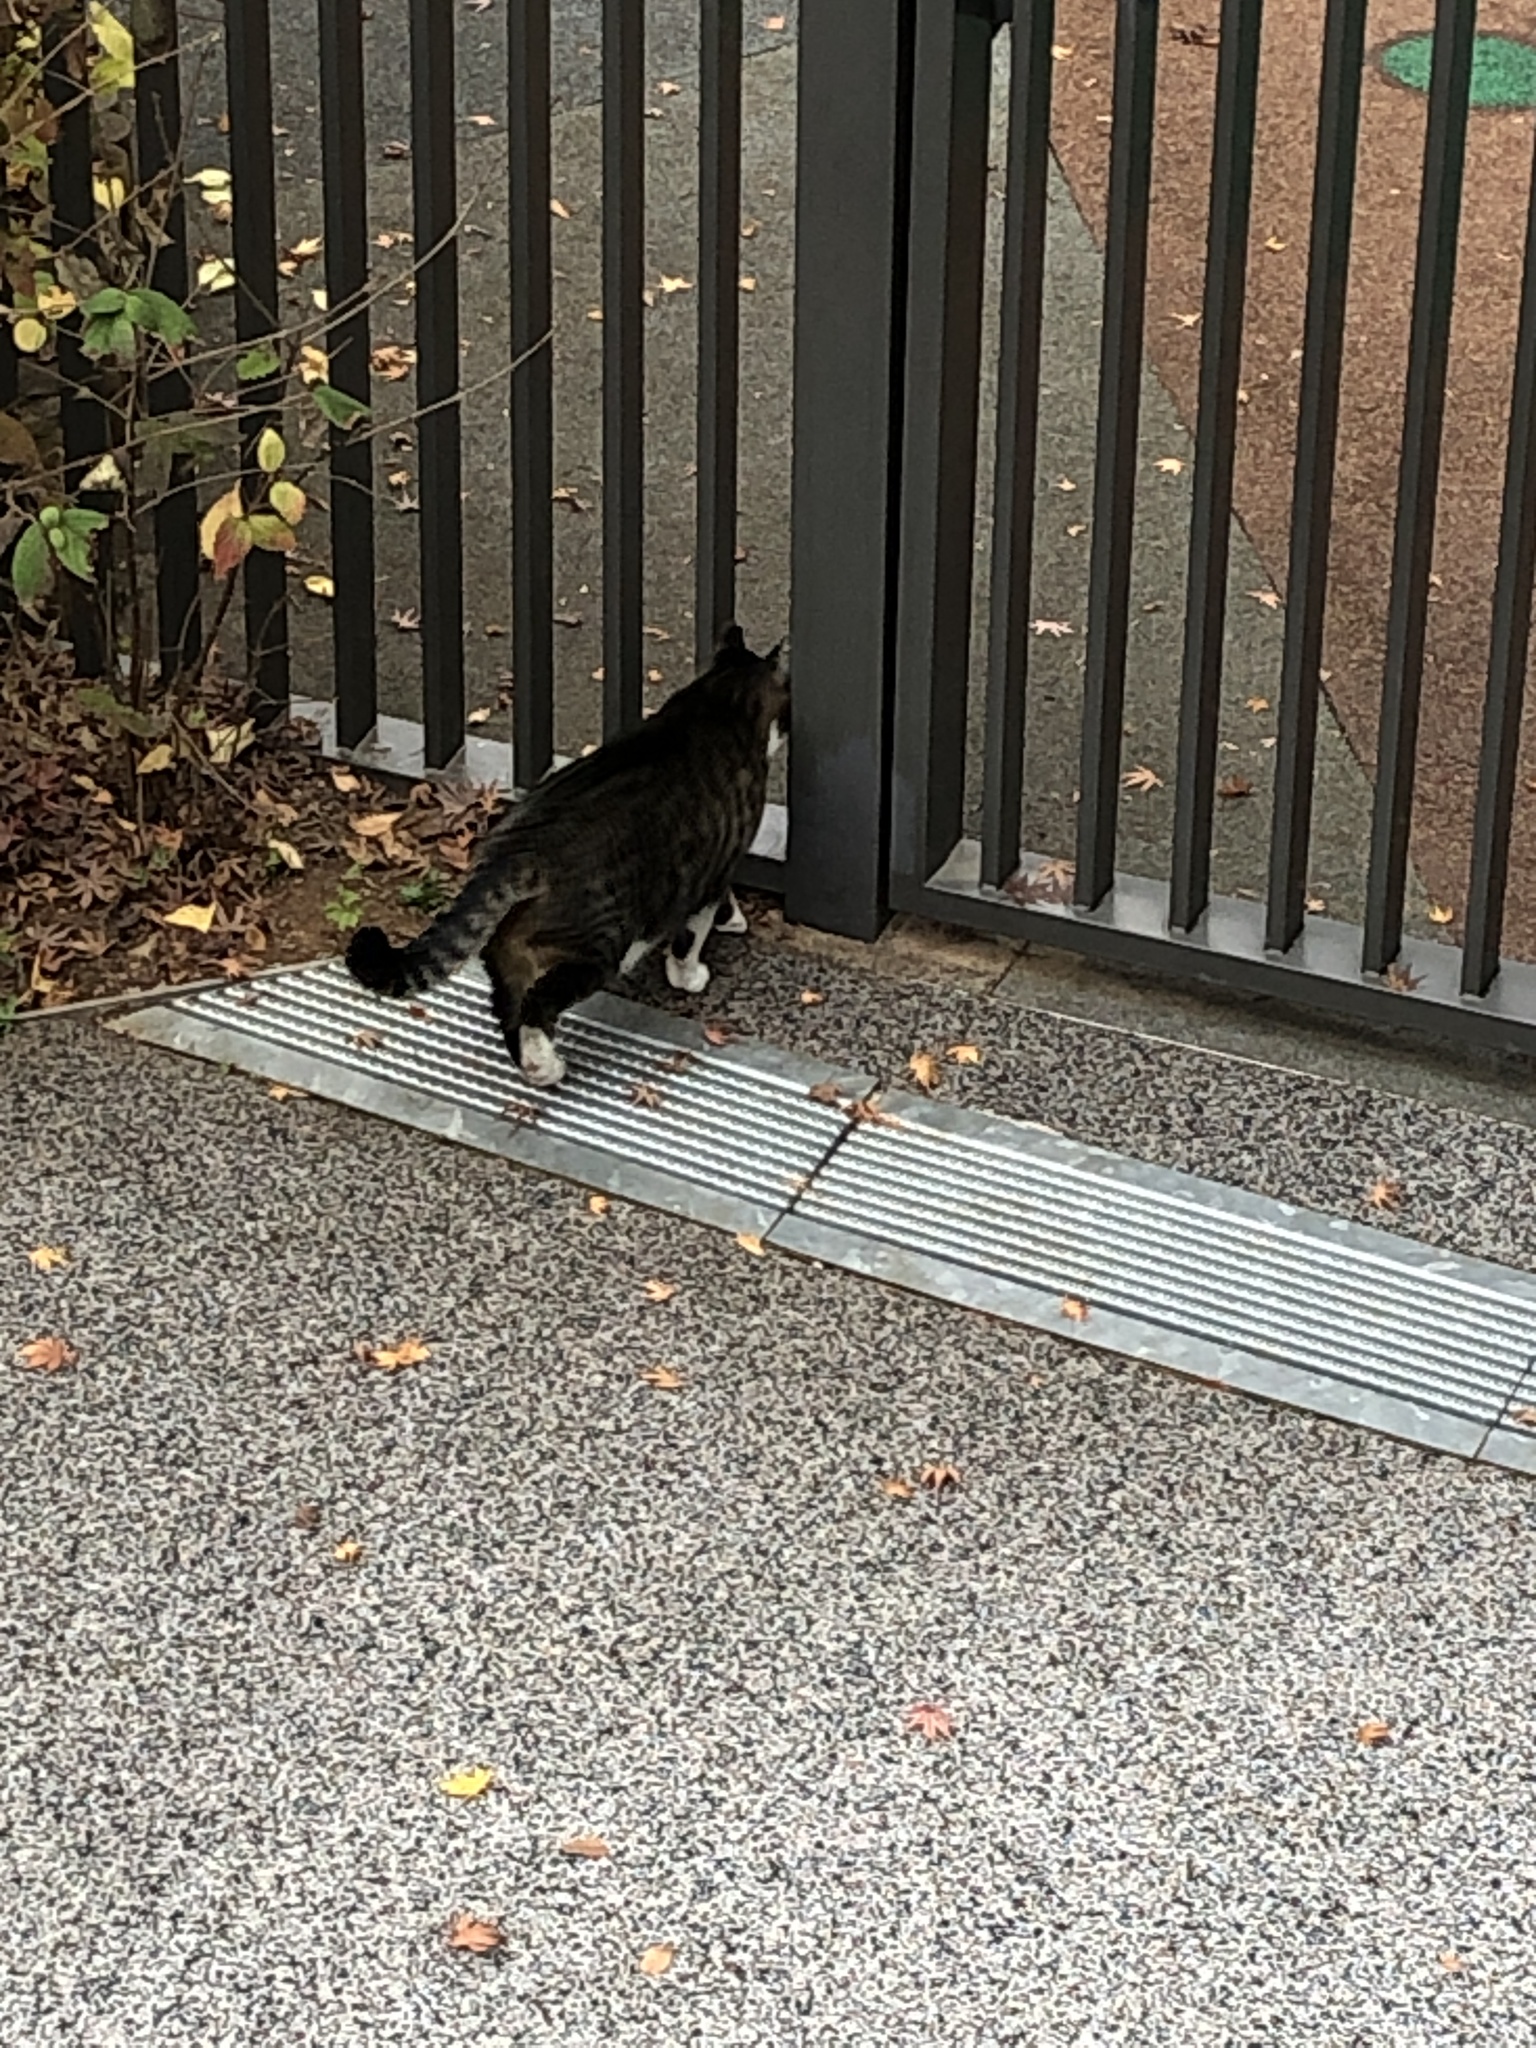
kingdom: Animalia
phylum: Chordata
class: Mammalia
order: Carnivora
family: Felidae
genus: Felis
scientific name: Felis catus
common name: Domestic cat
